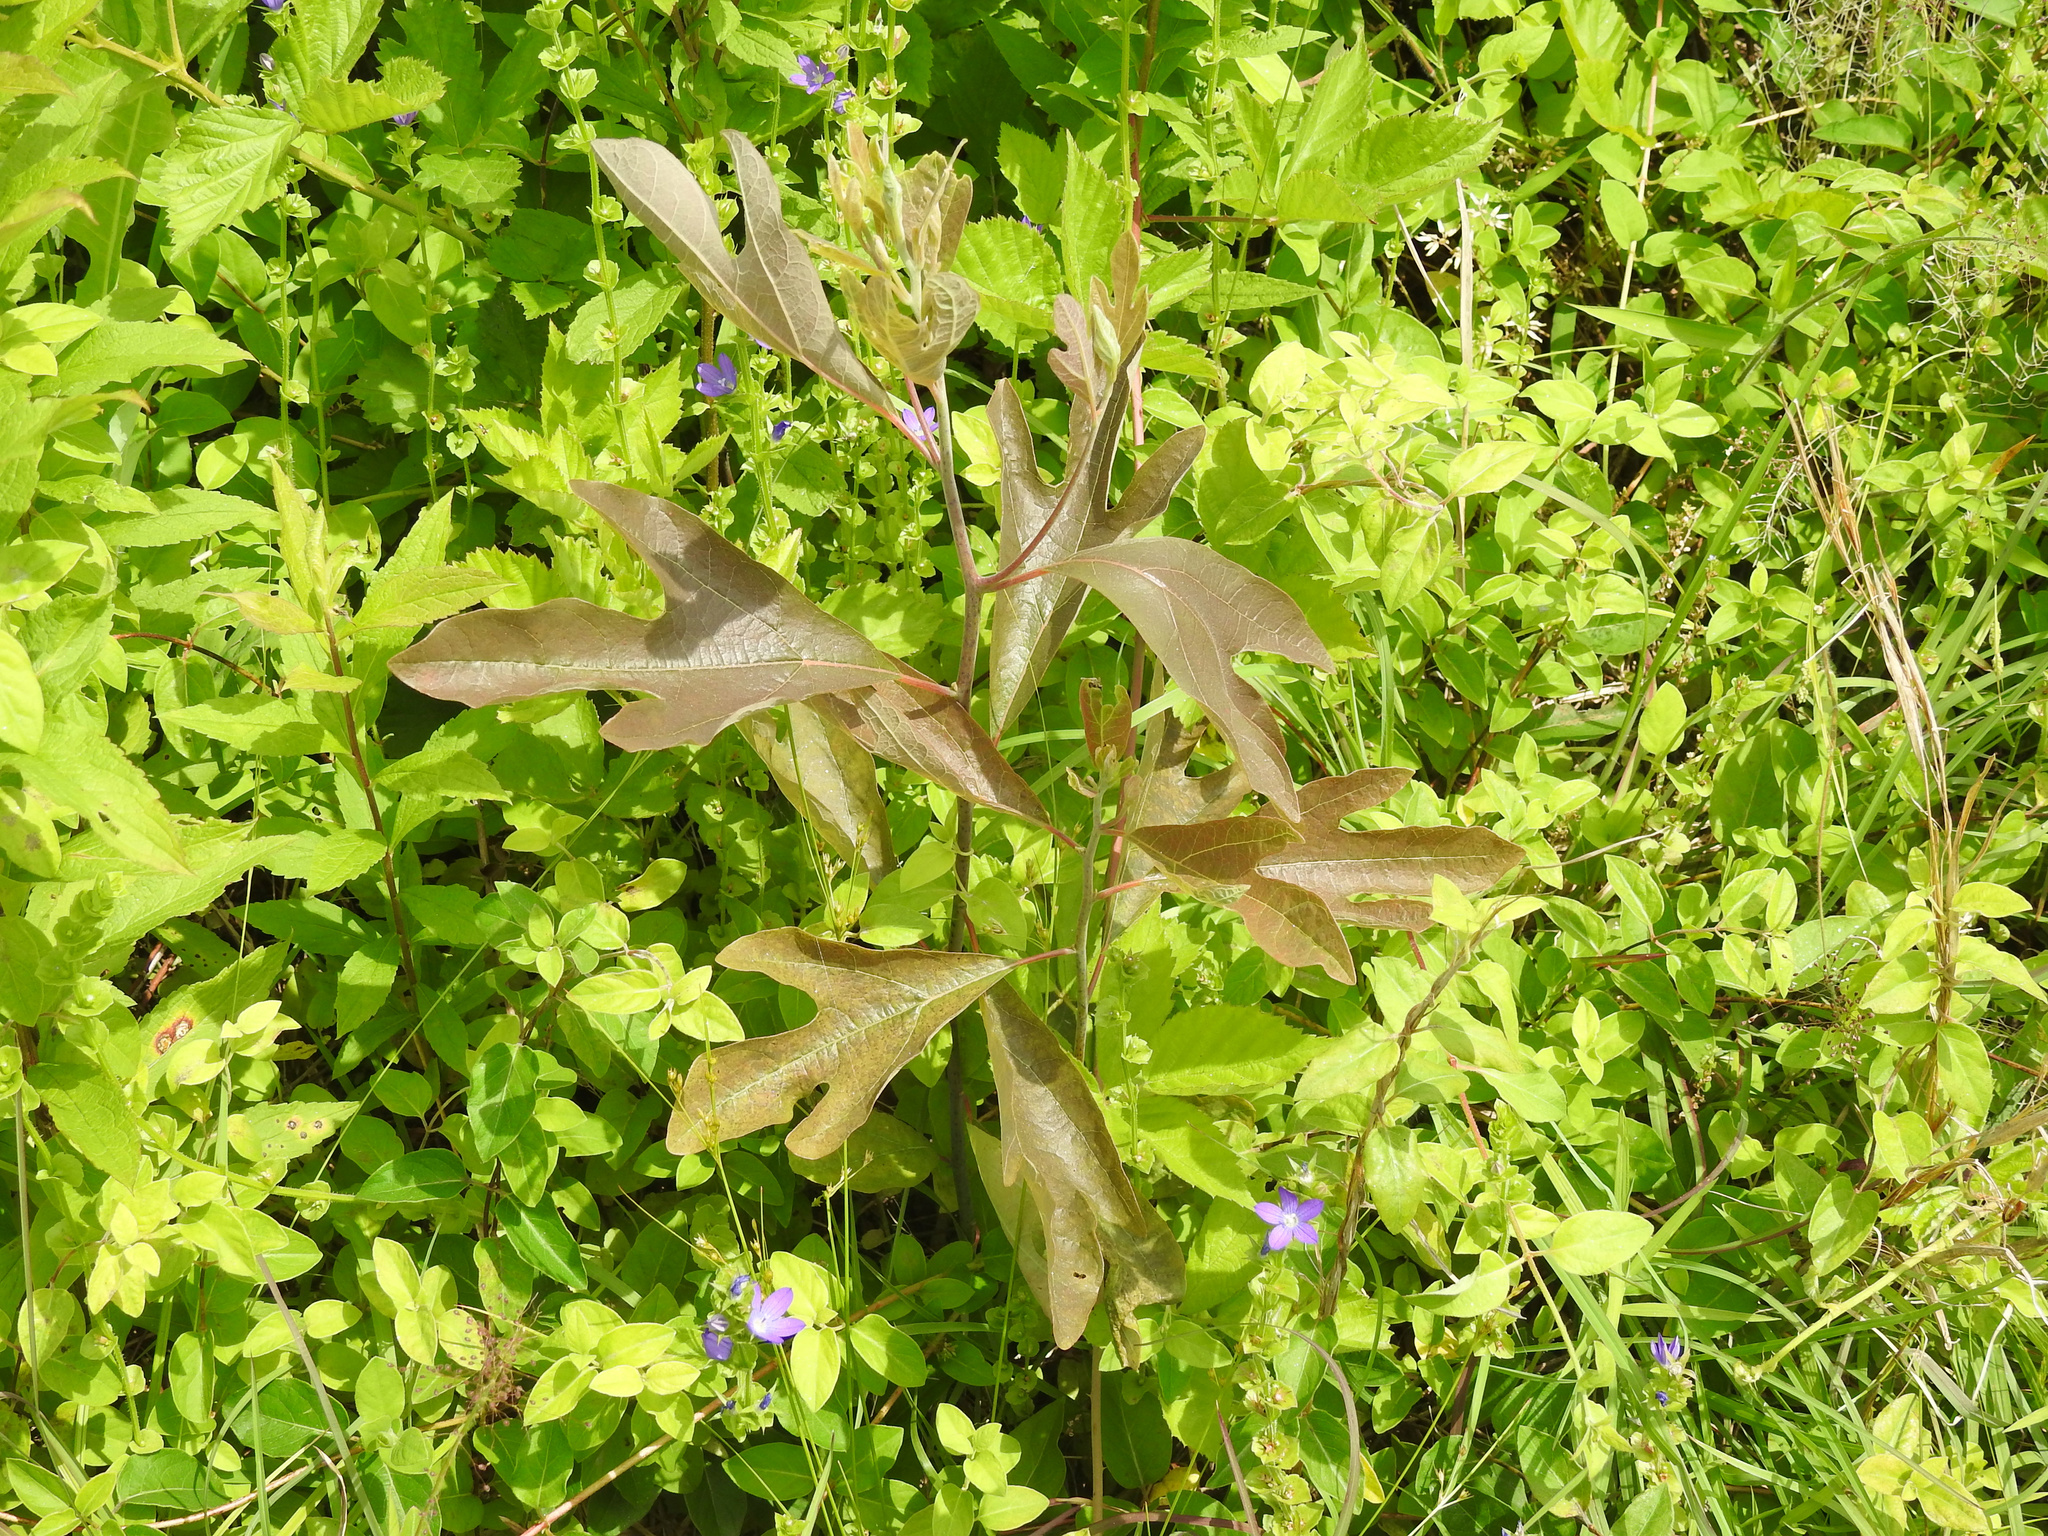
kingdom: Plantae
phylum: Tracheophyta
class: Magnoliopsida
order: Laurales
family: Lauraceae
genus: Sassafras
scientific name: Sassafras albidum
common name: Sassafras
